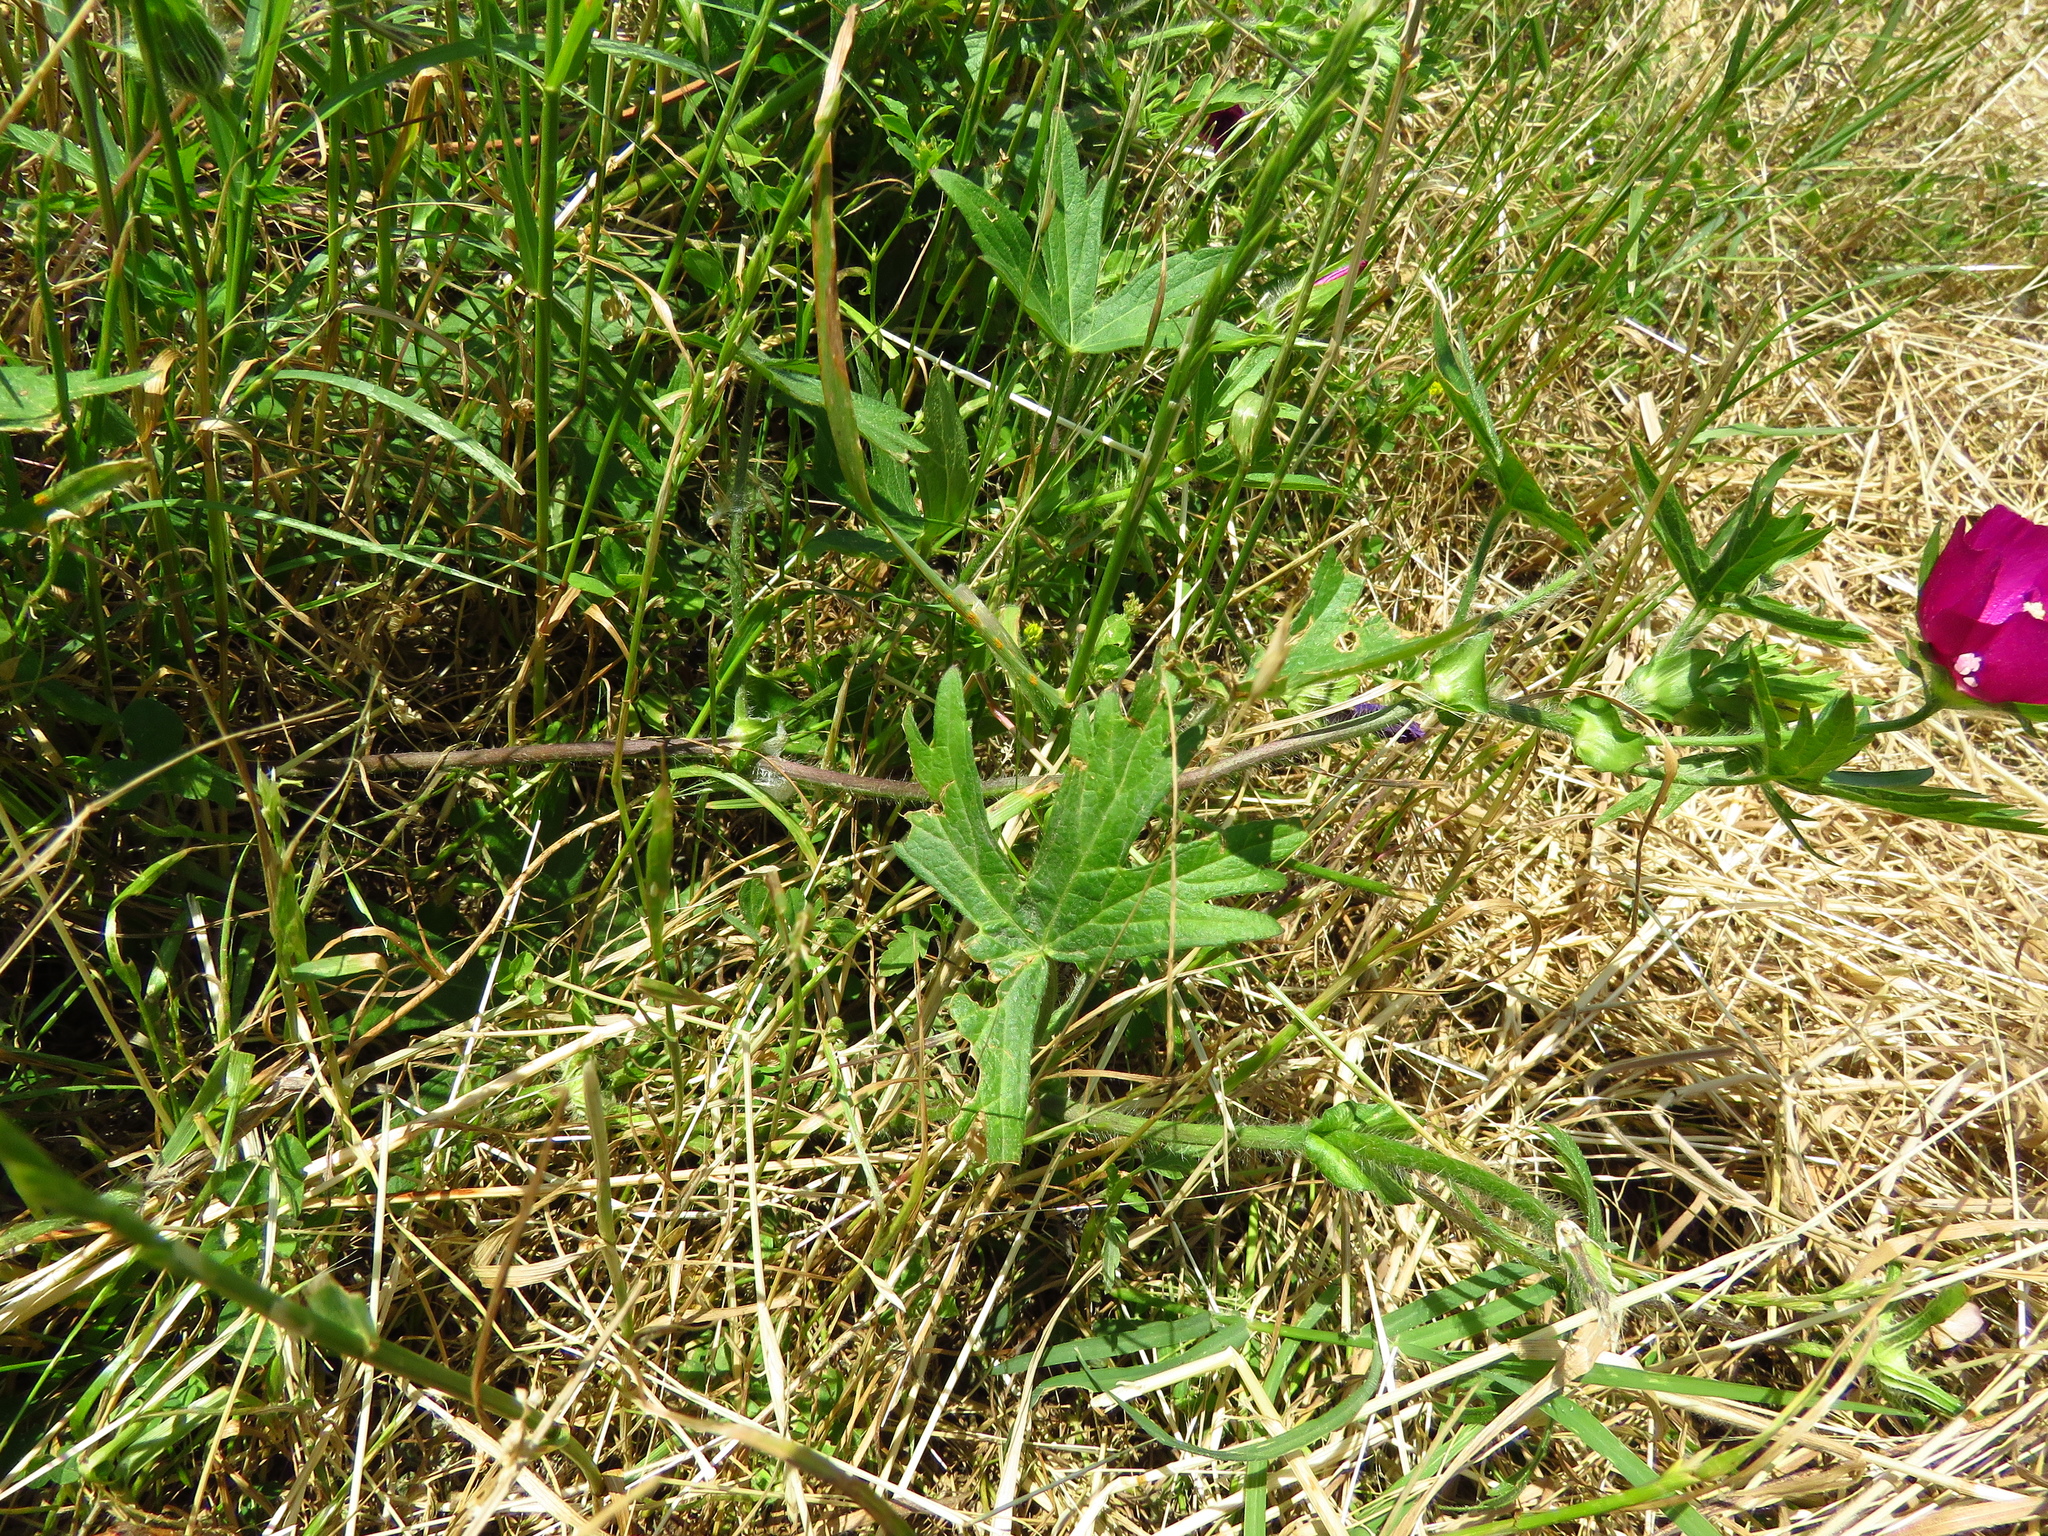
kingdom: Plantae
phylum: Tracheophyta
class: Magnoliopsida
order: Malvales
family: Malvaceae
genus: Callirhoe
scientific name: Callirhoe involucrata
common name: Purple poppy-mallow
